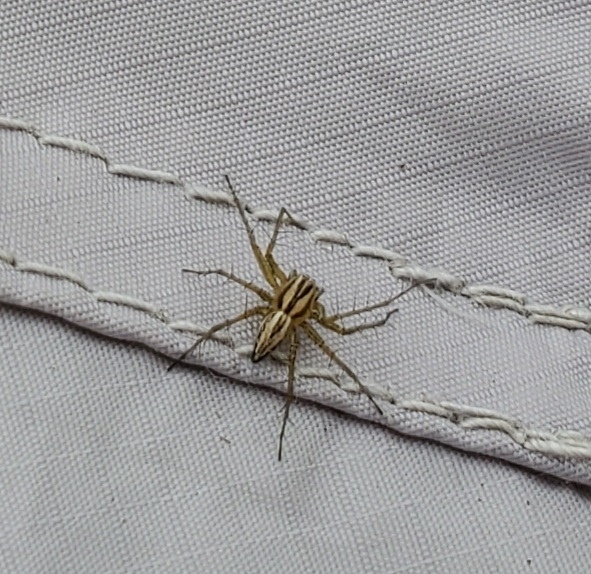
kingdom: Animalia
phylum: Arthropoda
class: Arachnida
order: Araneae
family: Oxyopidae
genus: Oxyopes
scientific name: Oxyopes gracilipes
